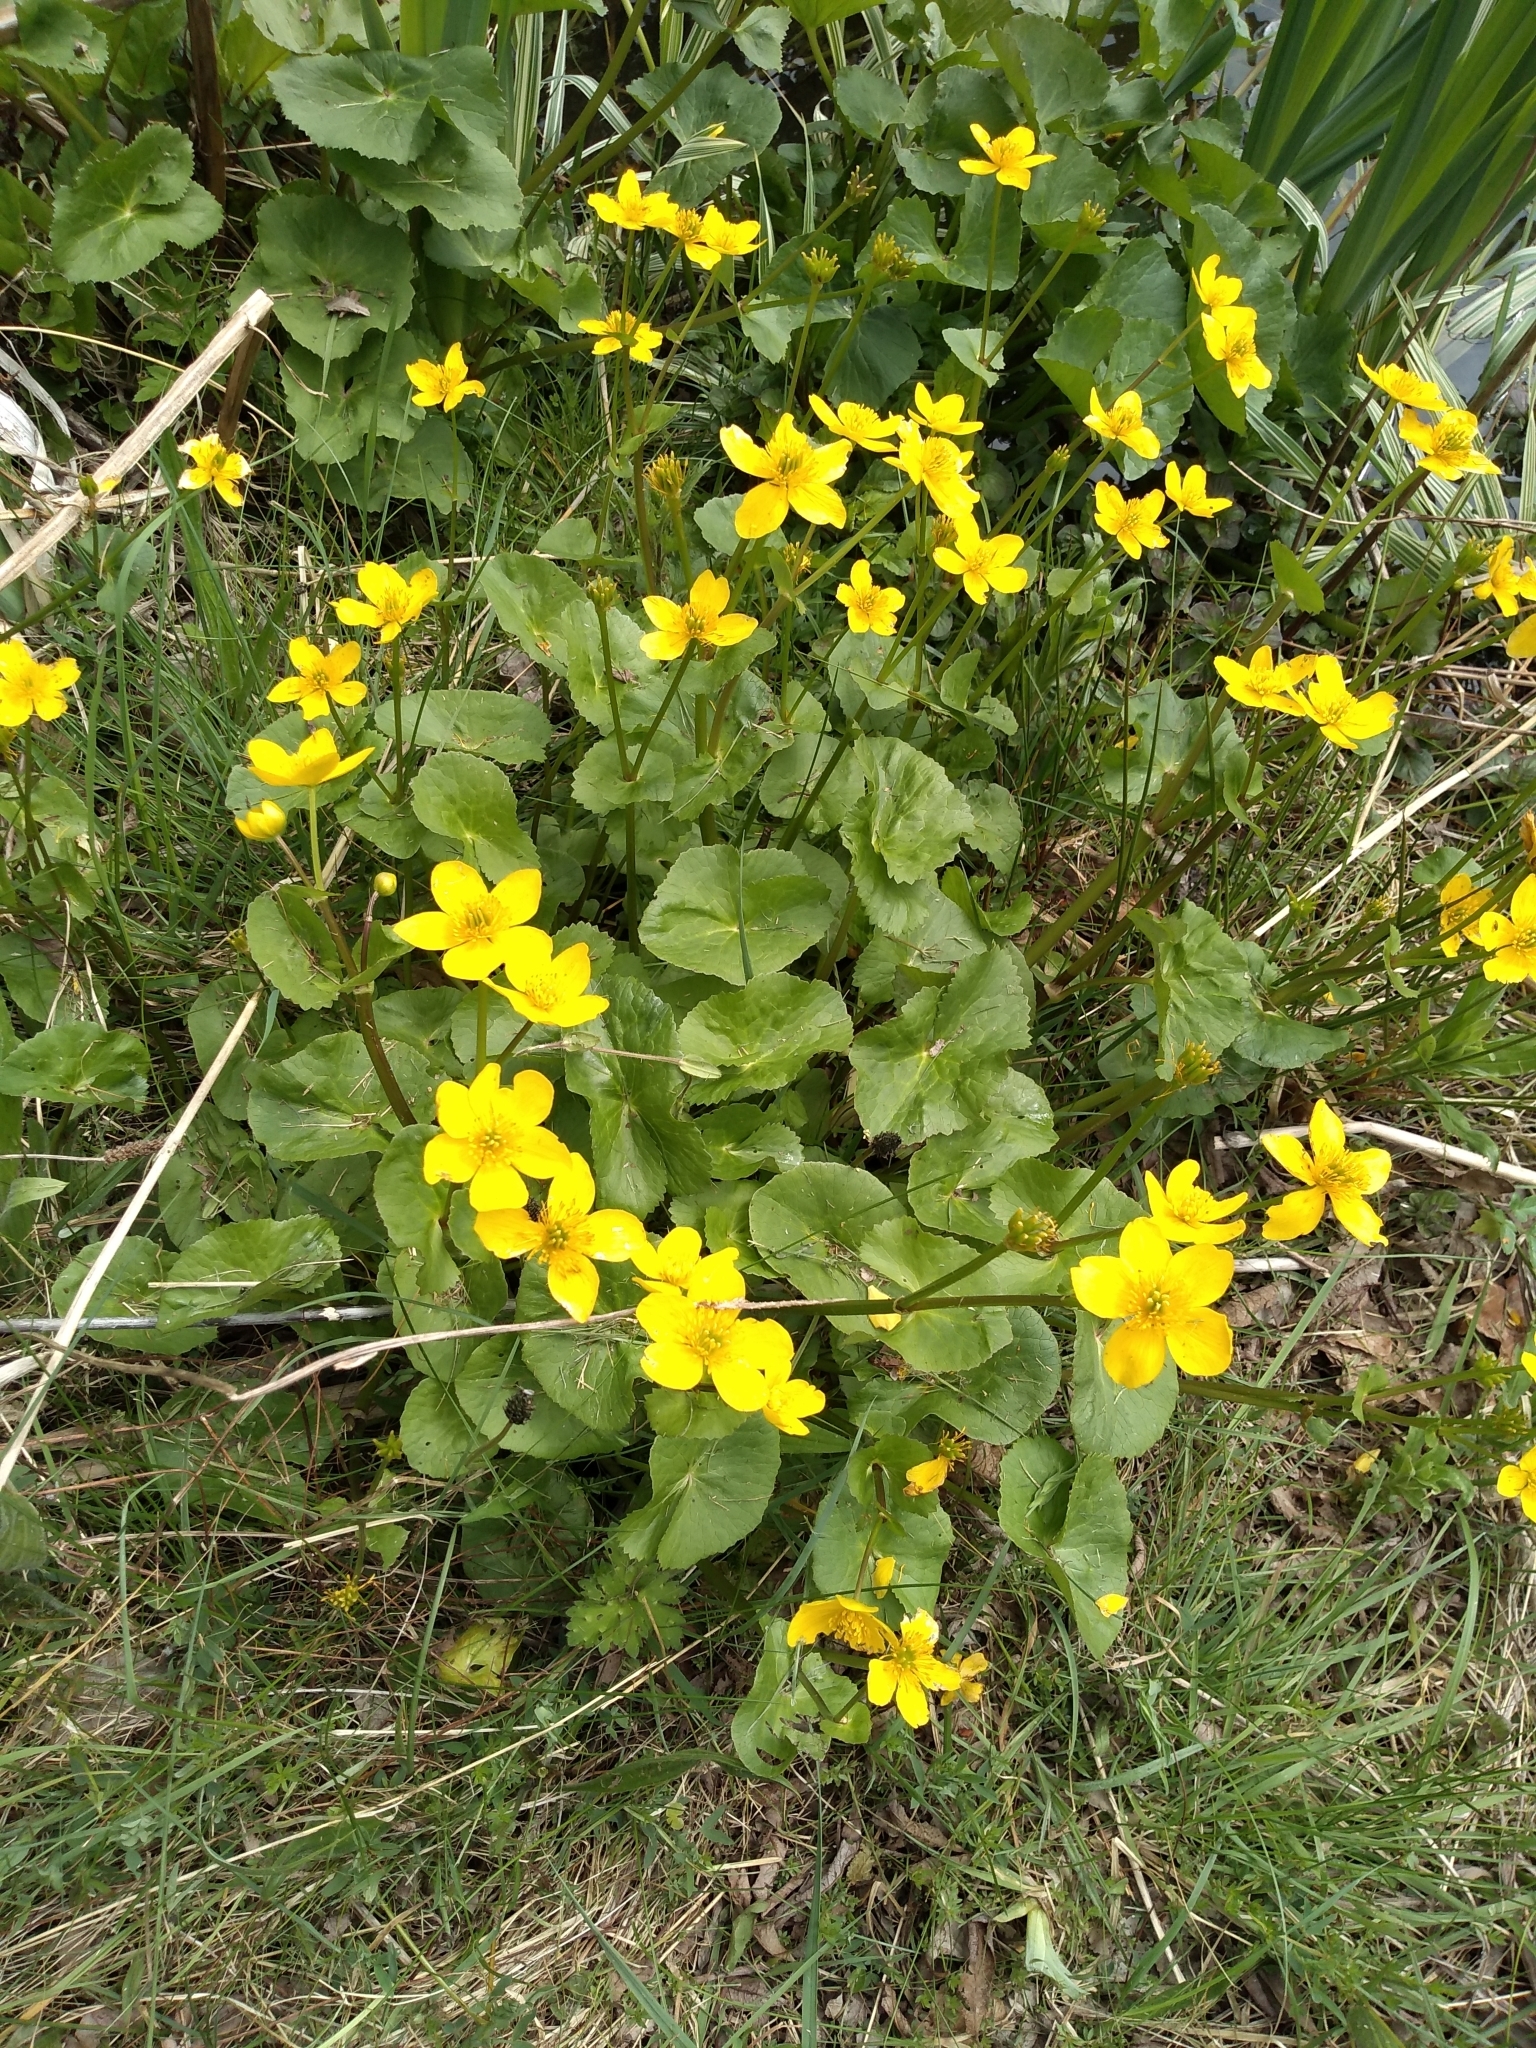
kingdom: Plantae
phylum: Tracheophyta
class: Magnoliopsida
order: Ranunculales
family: Ranunculaceae
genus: Caltha
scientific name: Caltha palustris
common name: Marsh marigold
